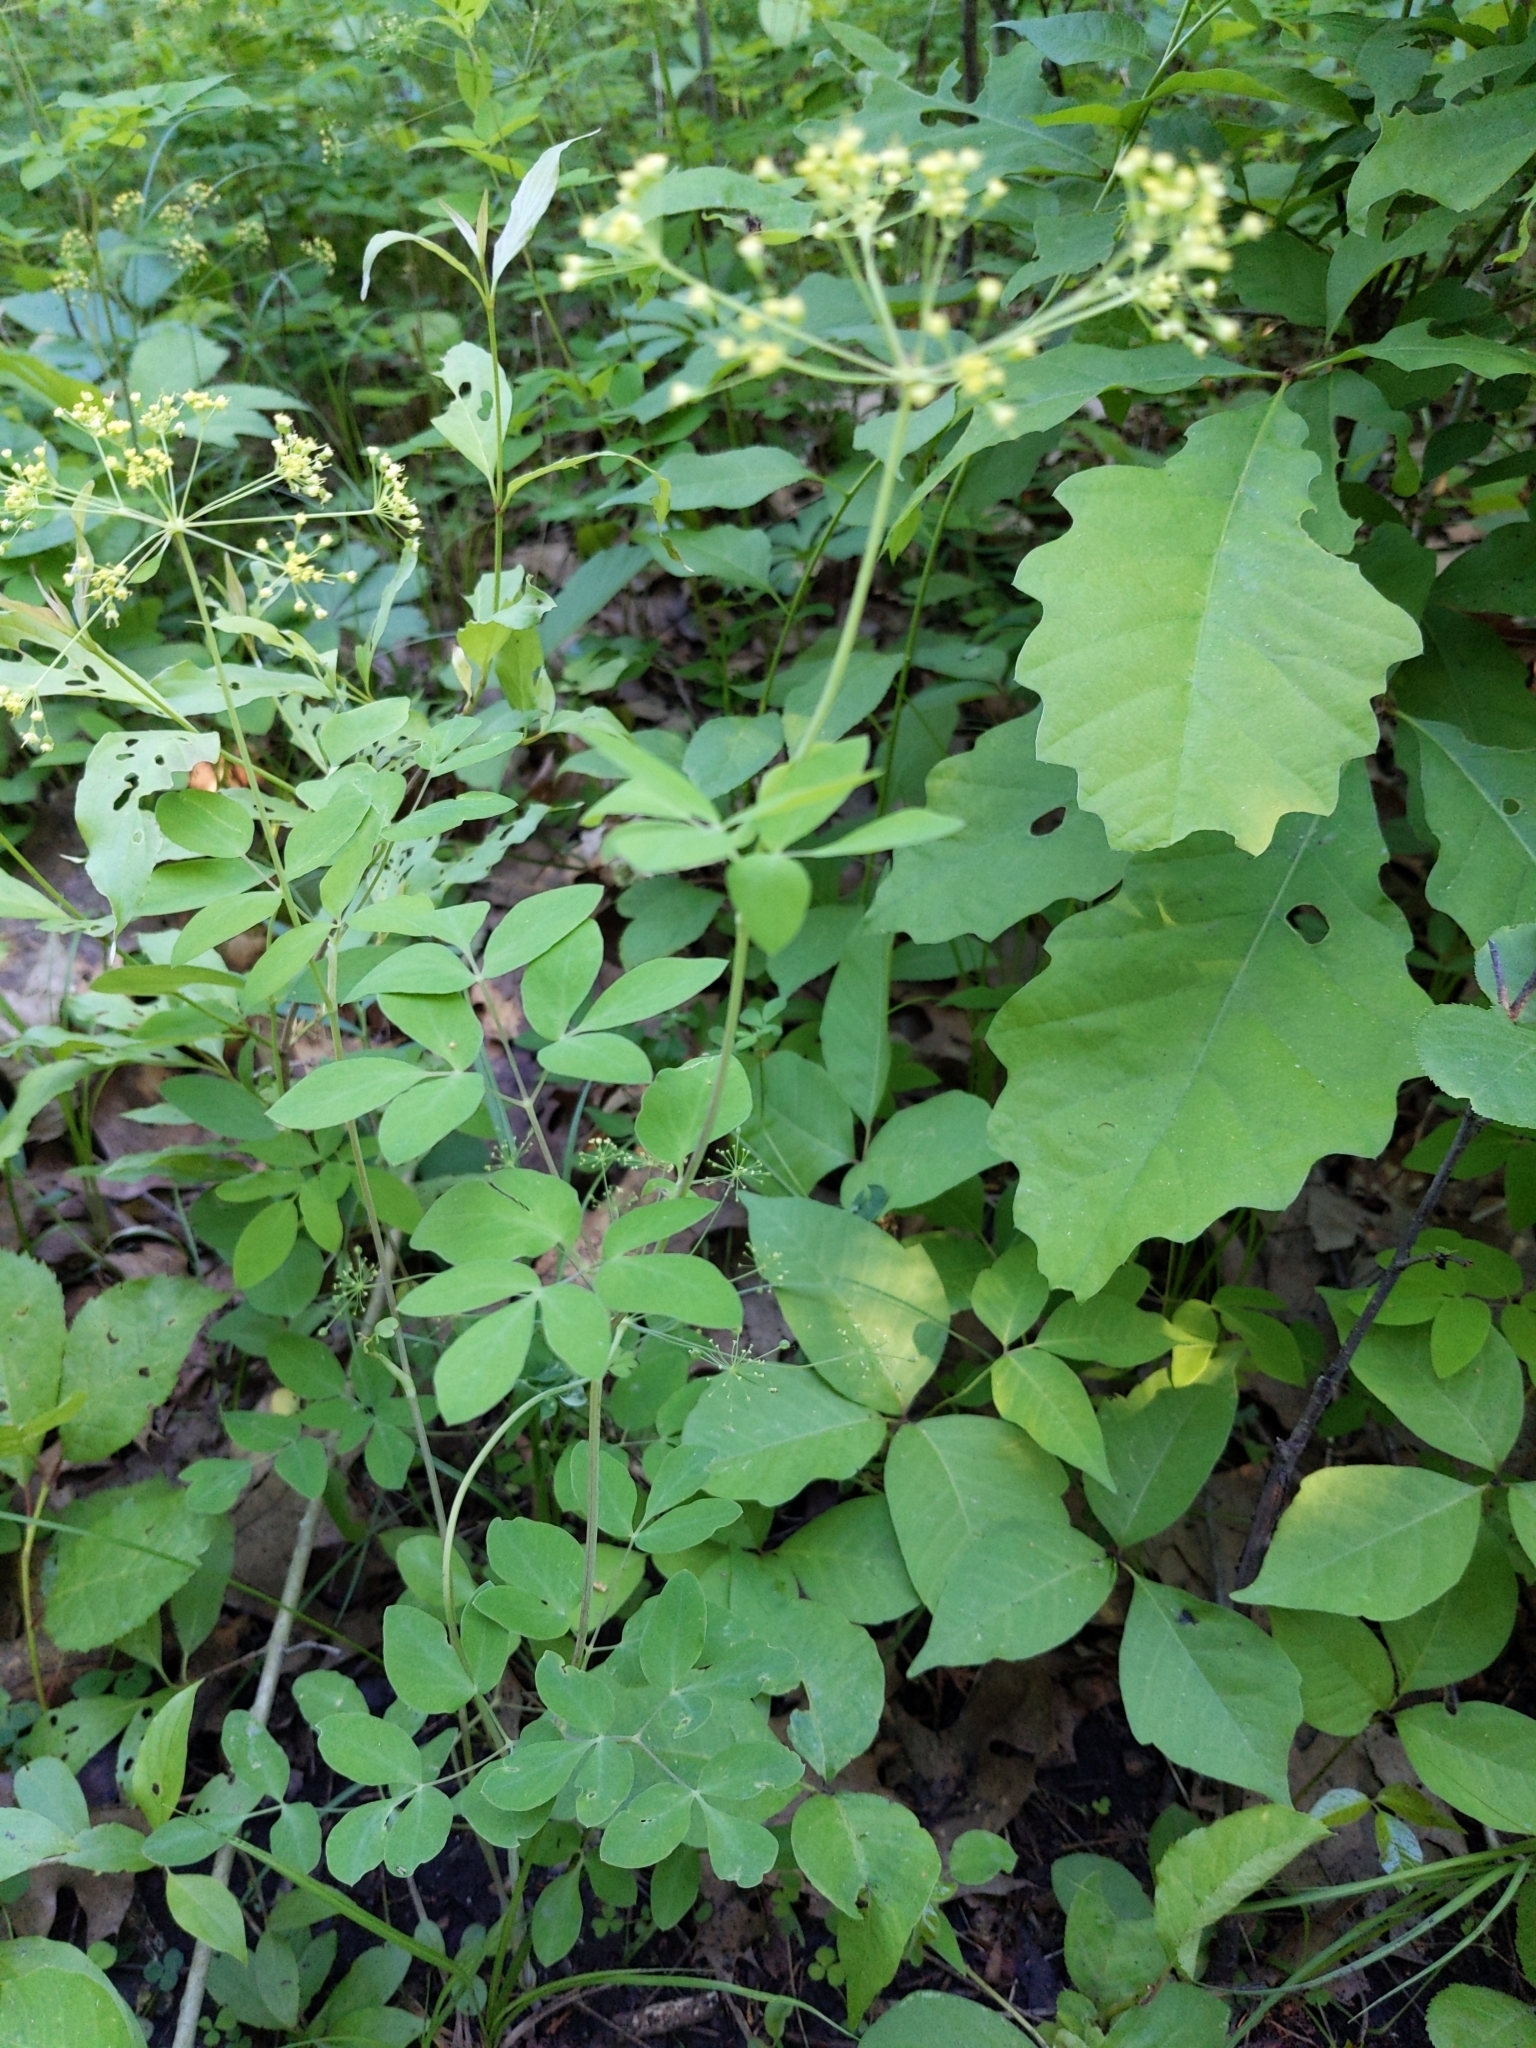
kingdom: Plantae
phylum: Tracheophyta
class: Magnoliopsida
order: Apiales
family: Apiaceae
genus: Taenidia
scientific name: Taenidia integerrima
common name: Golden alexander
